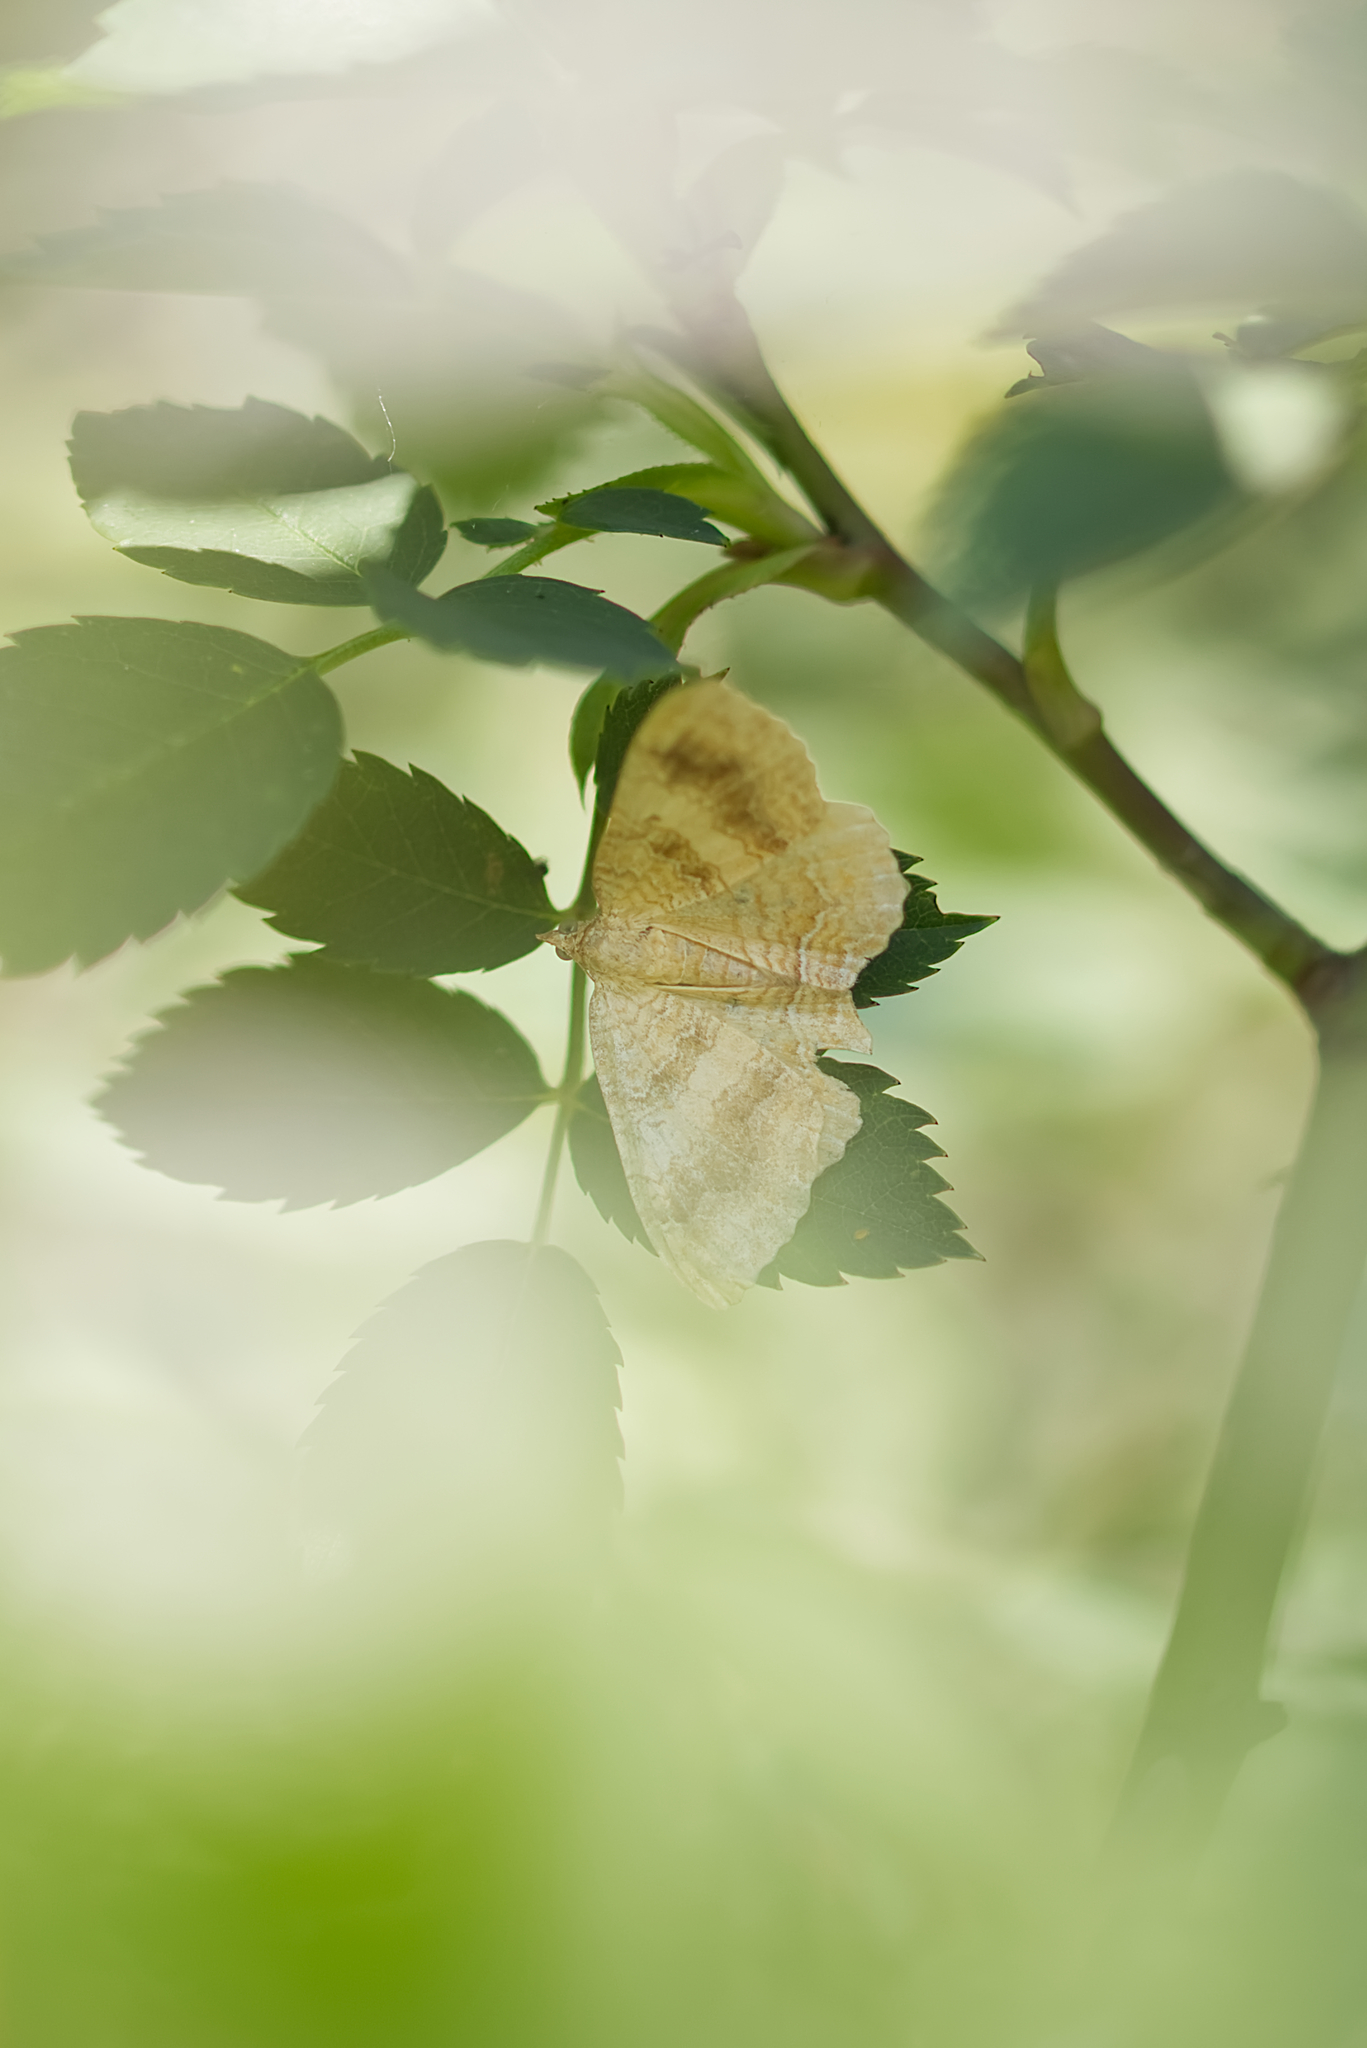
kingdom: Animalia
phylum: Arthropoda
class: Insecta
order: Lepidoptera
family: Geometridae
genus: Camptogramma
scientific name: Camptogramma bilineata
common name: Yellow shell
